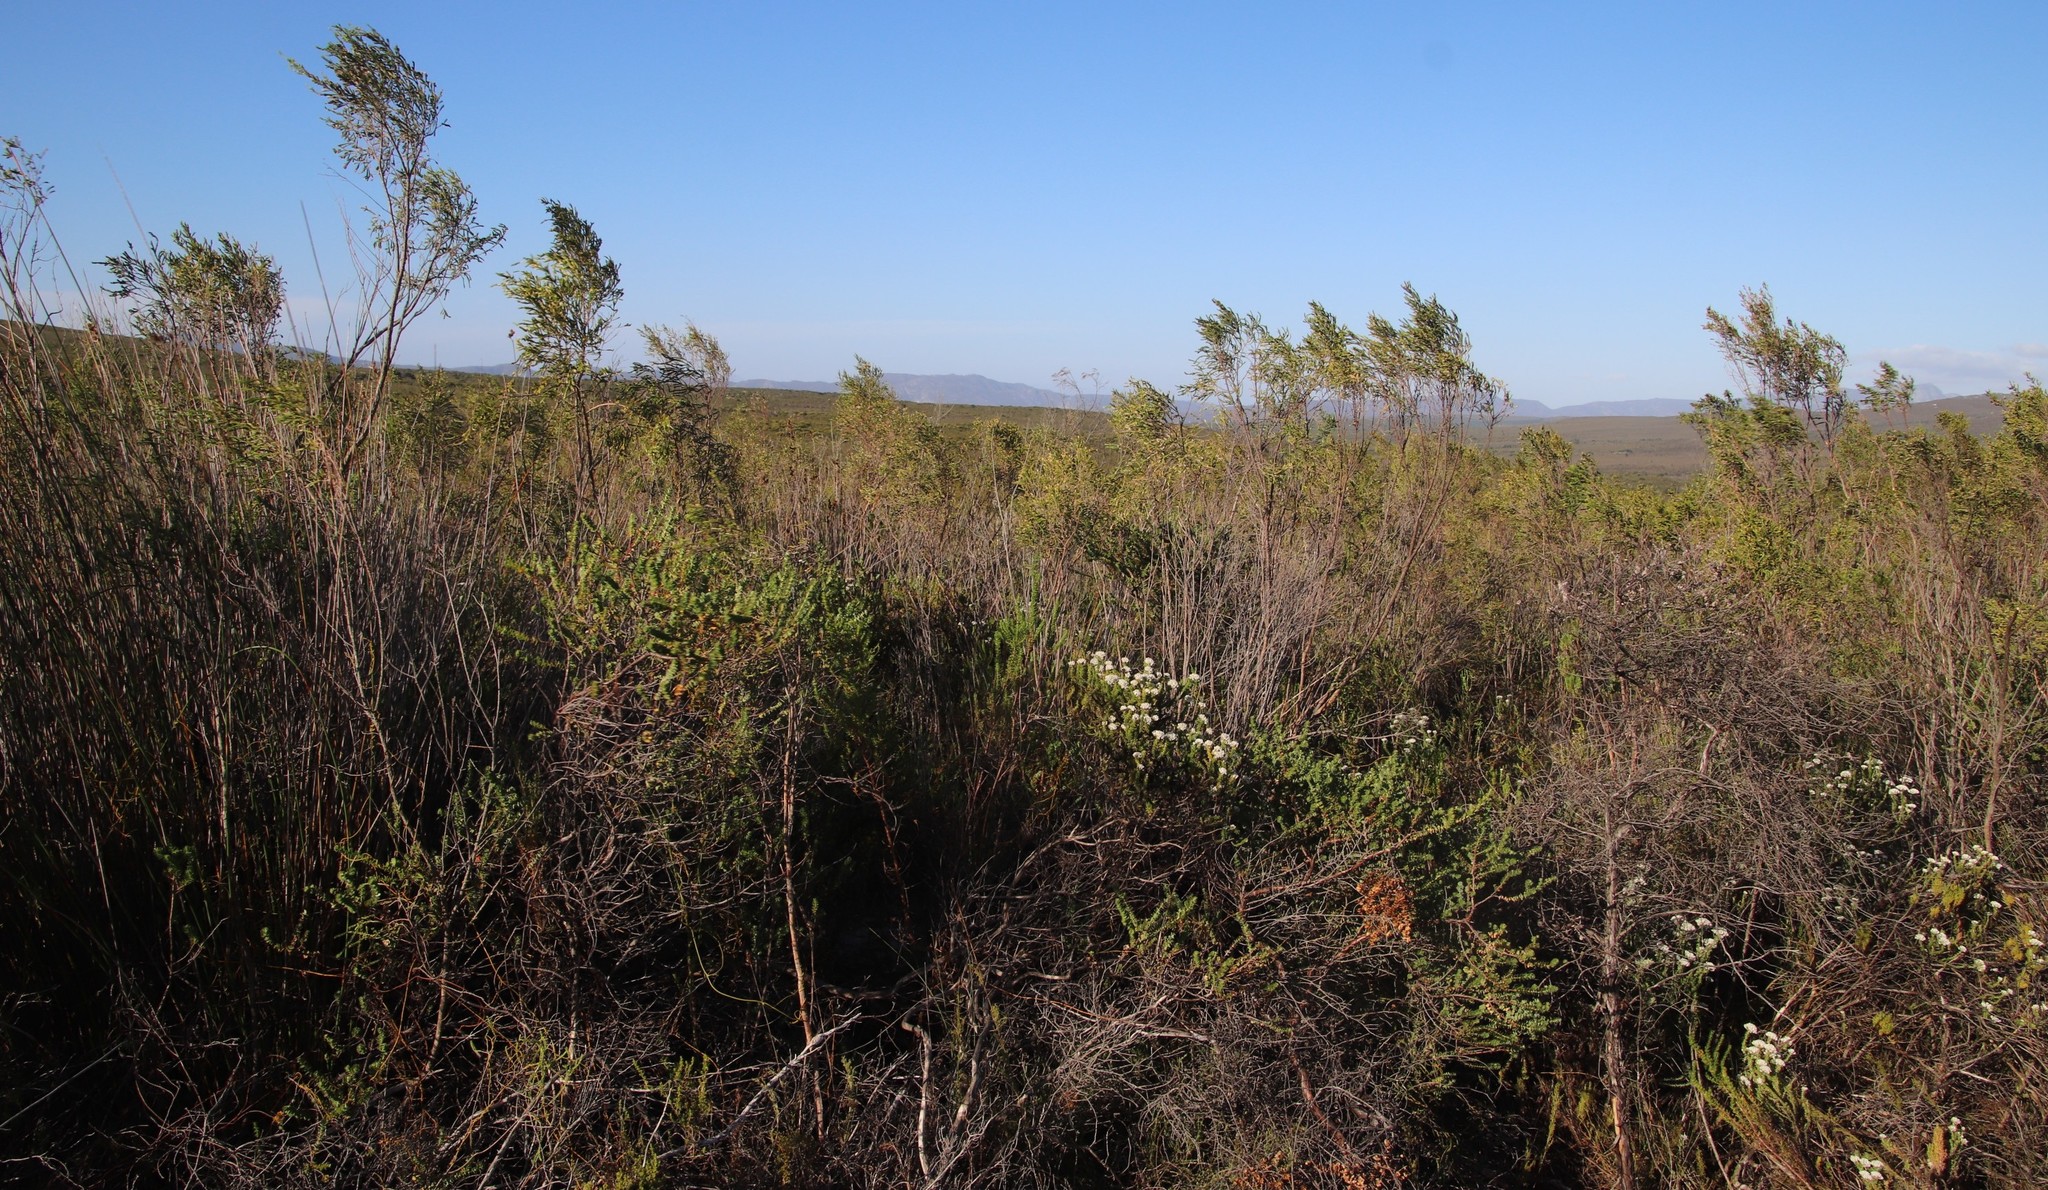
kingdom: Plantae
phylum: Tracheophyta
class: Magnoliopsida
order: Bruniales
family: Bruniaceae
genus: Staavia
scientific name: Staavia radiata
